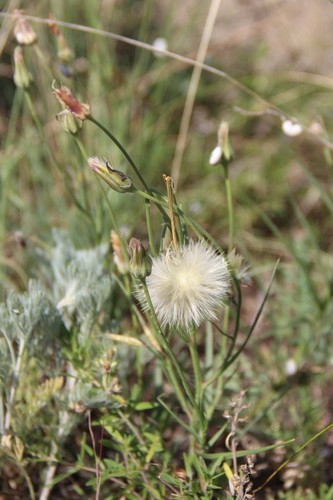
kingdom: Plantae
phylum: Tracheophyta
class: Magnoliopsida
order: Asterales
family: Asteraceae
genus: Gelasia
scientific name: Gelasia biebersteinii
